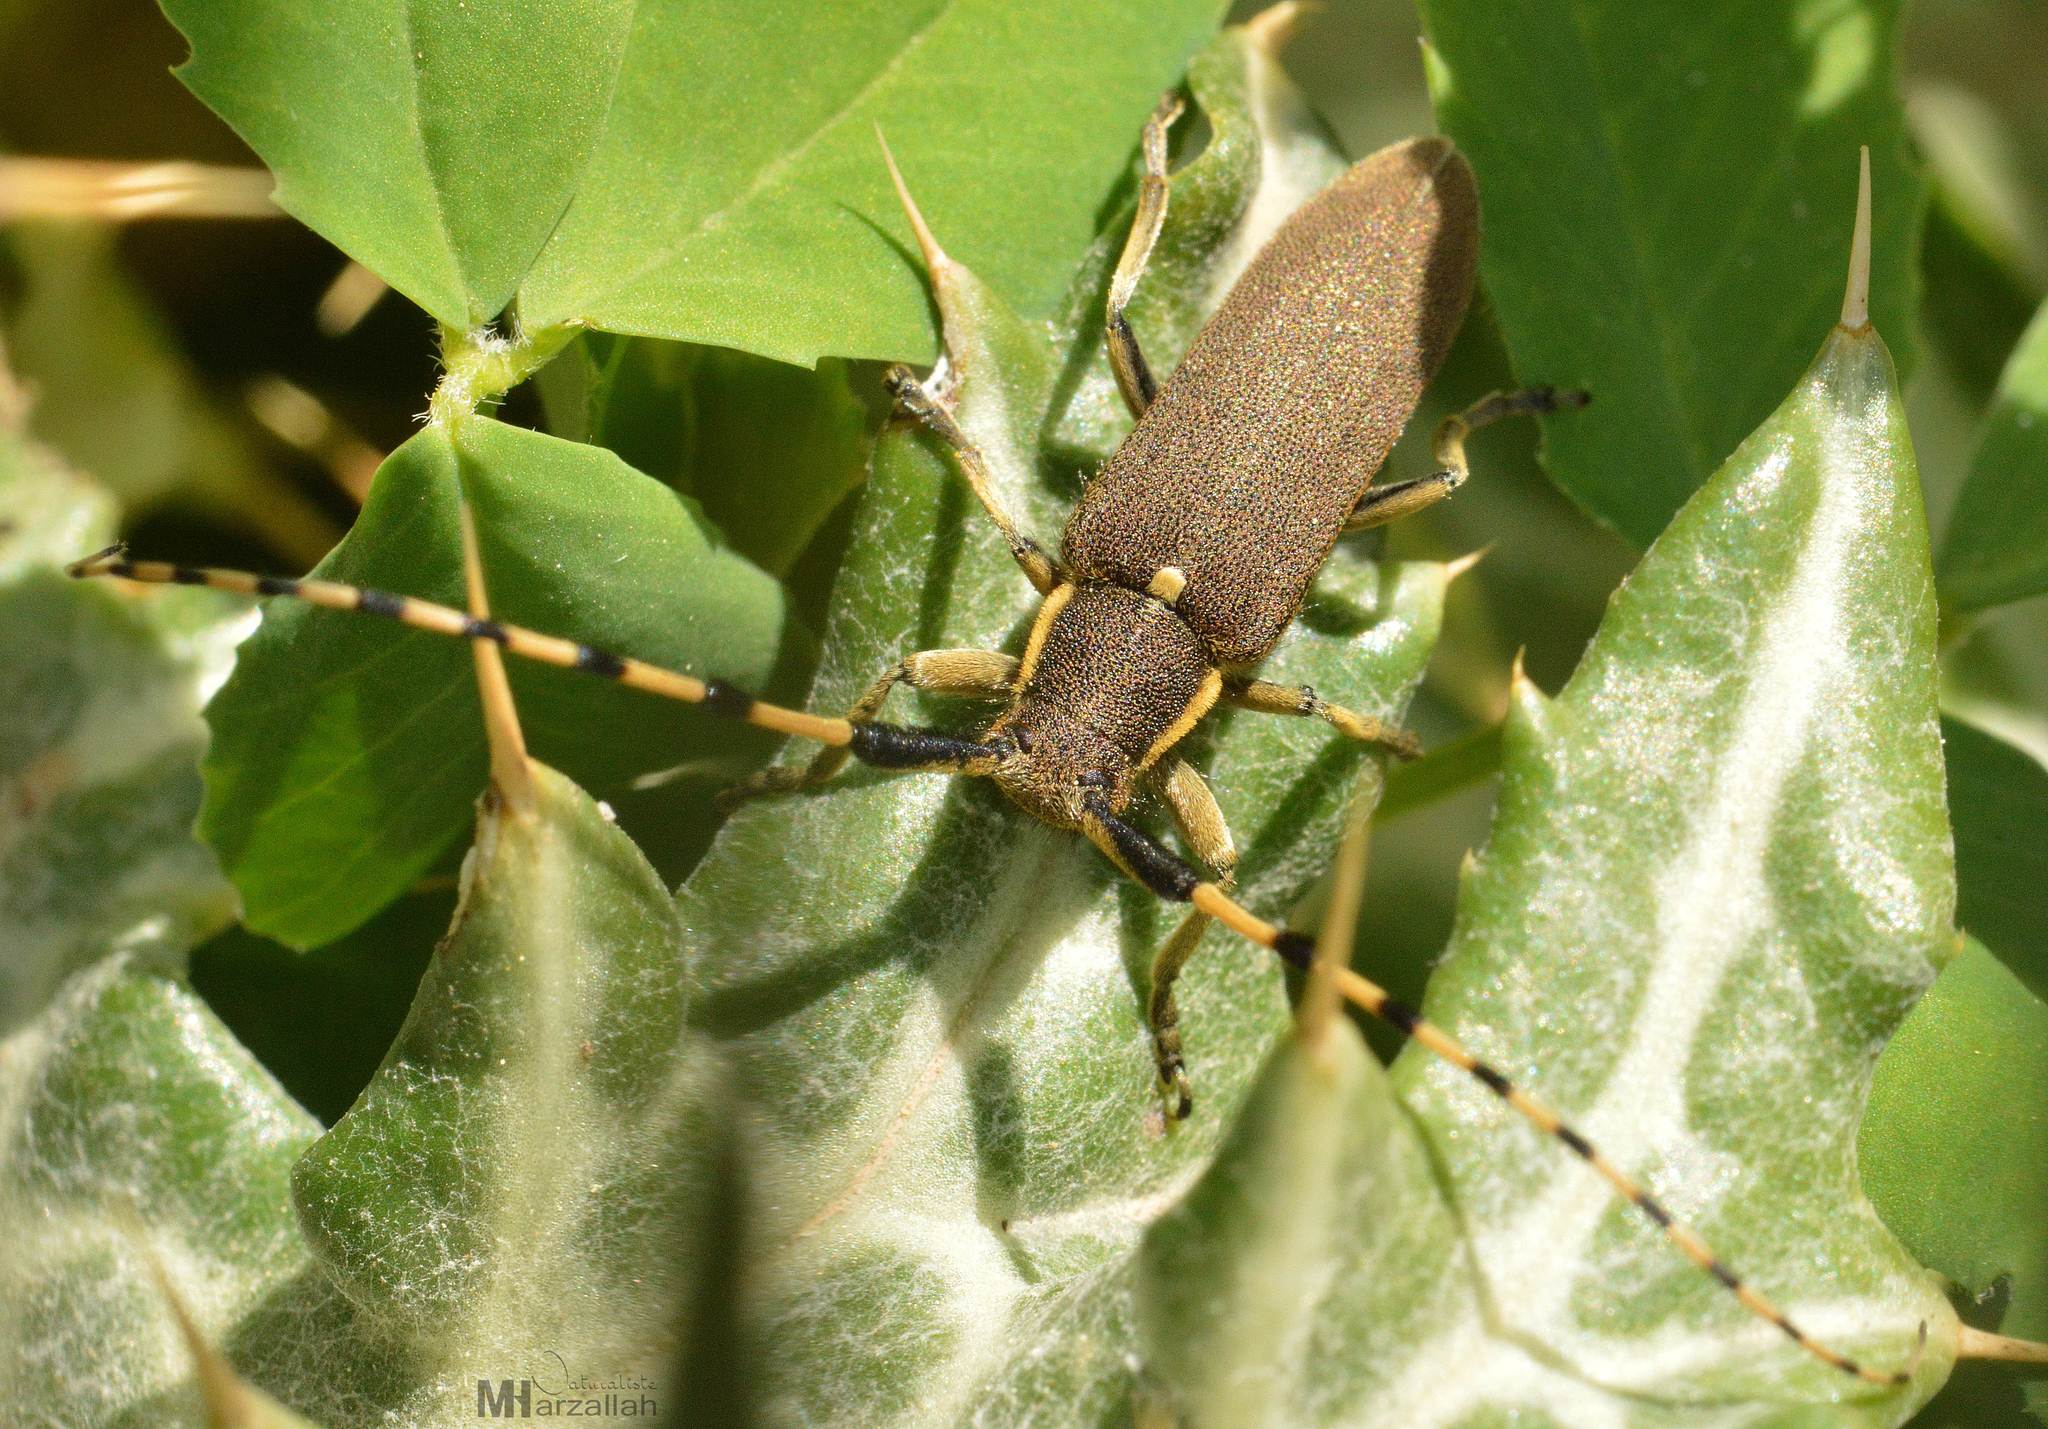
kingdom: Animalia
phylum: Arthropoda
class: Insecta
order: Coleoptera
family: Cerambycidae
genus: Agapanthia
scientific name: Agapanthia annularis
